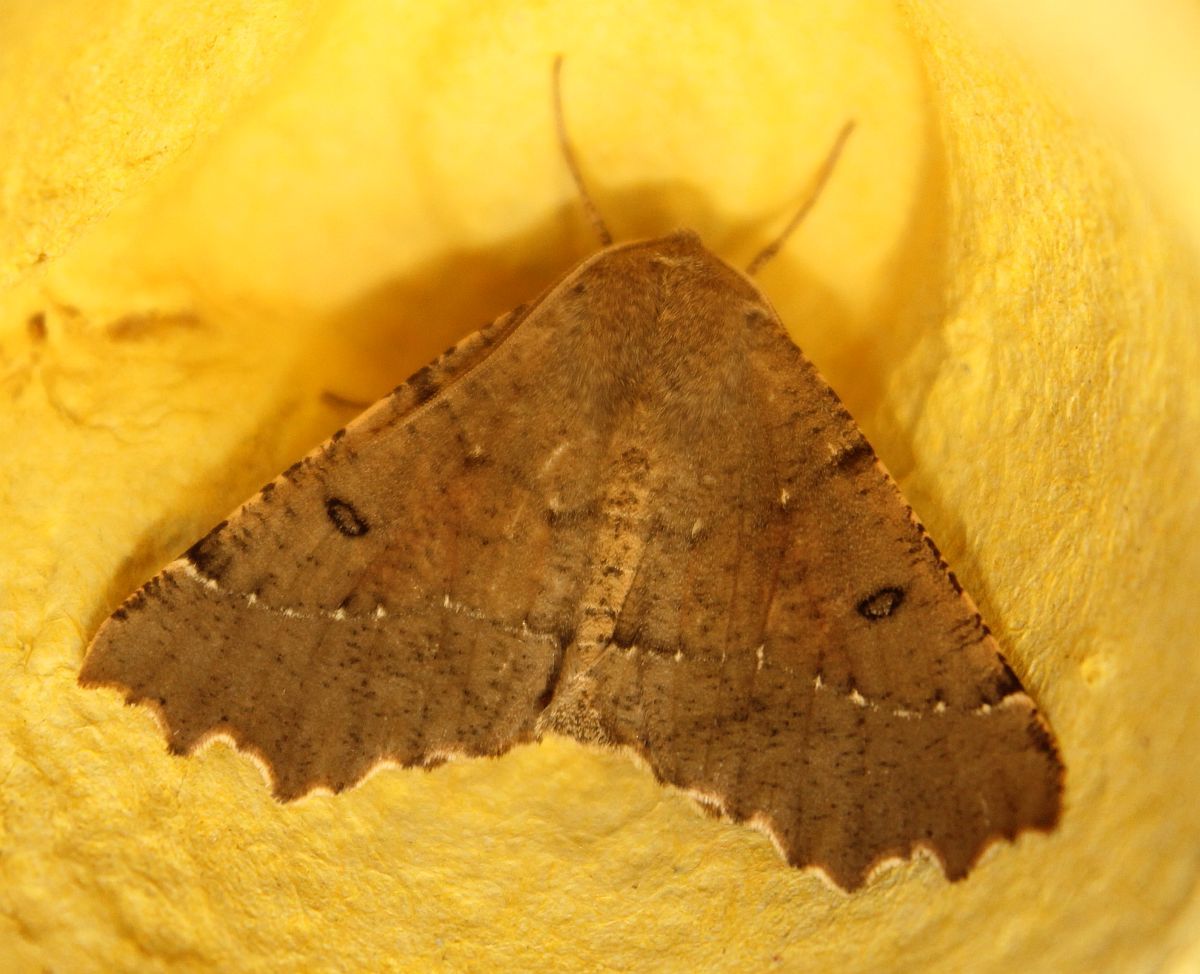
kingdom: Animalia
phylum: Arthropoda
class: Insecta
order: Lepidoptera
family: Geometridae
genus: Odontopera
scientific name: Odontopera bidentata
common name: Scalloped hazel
